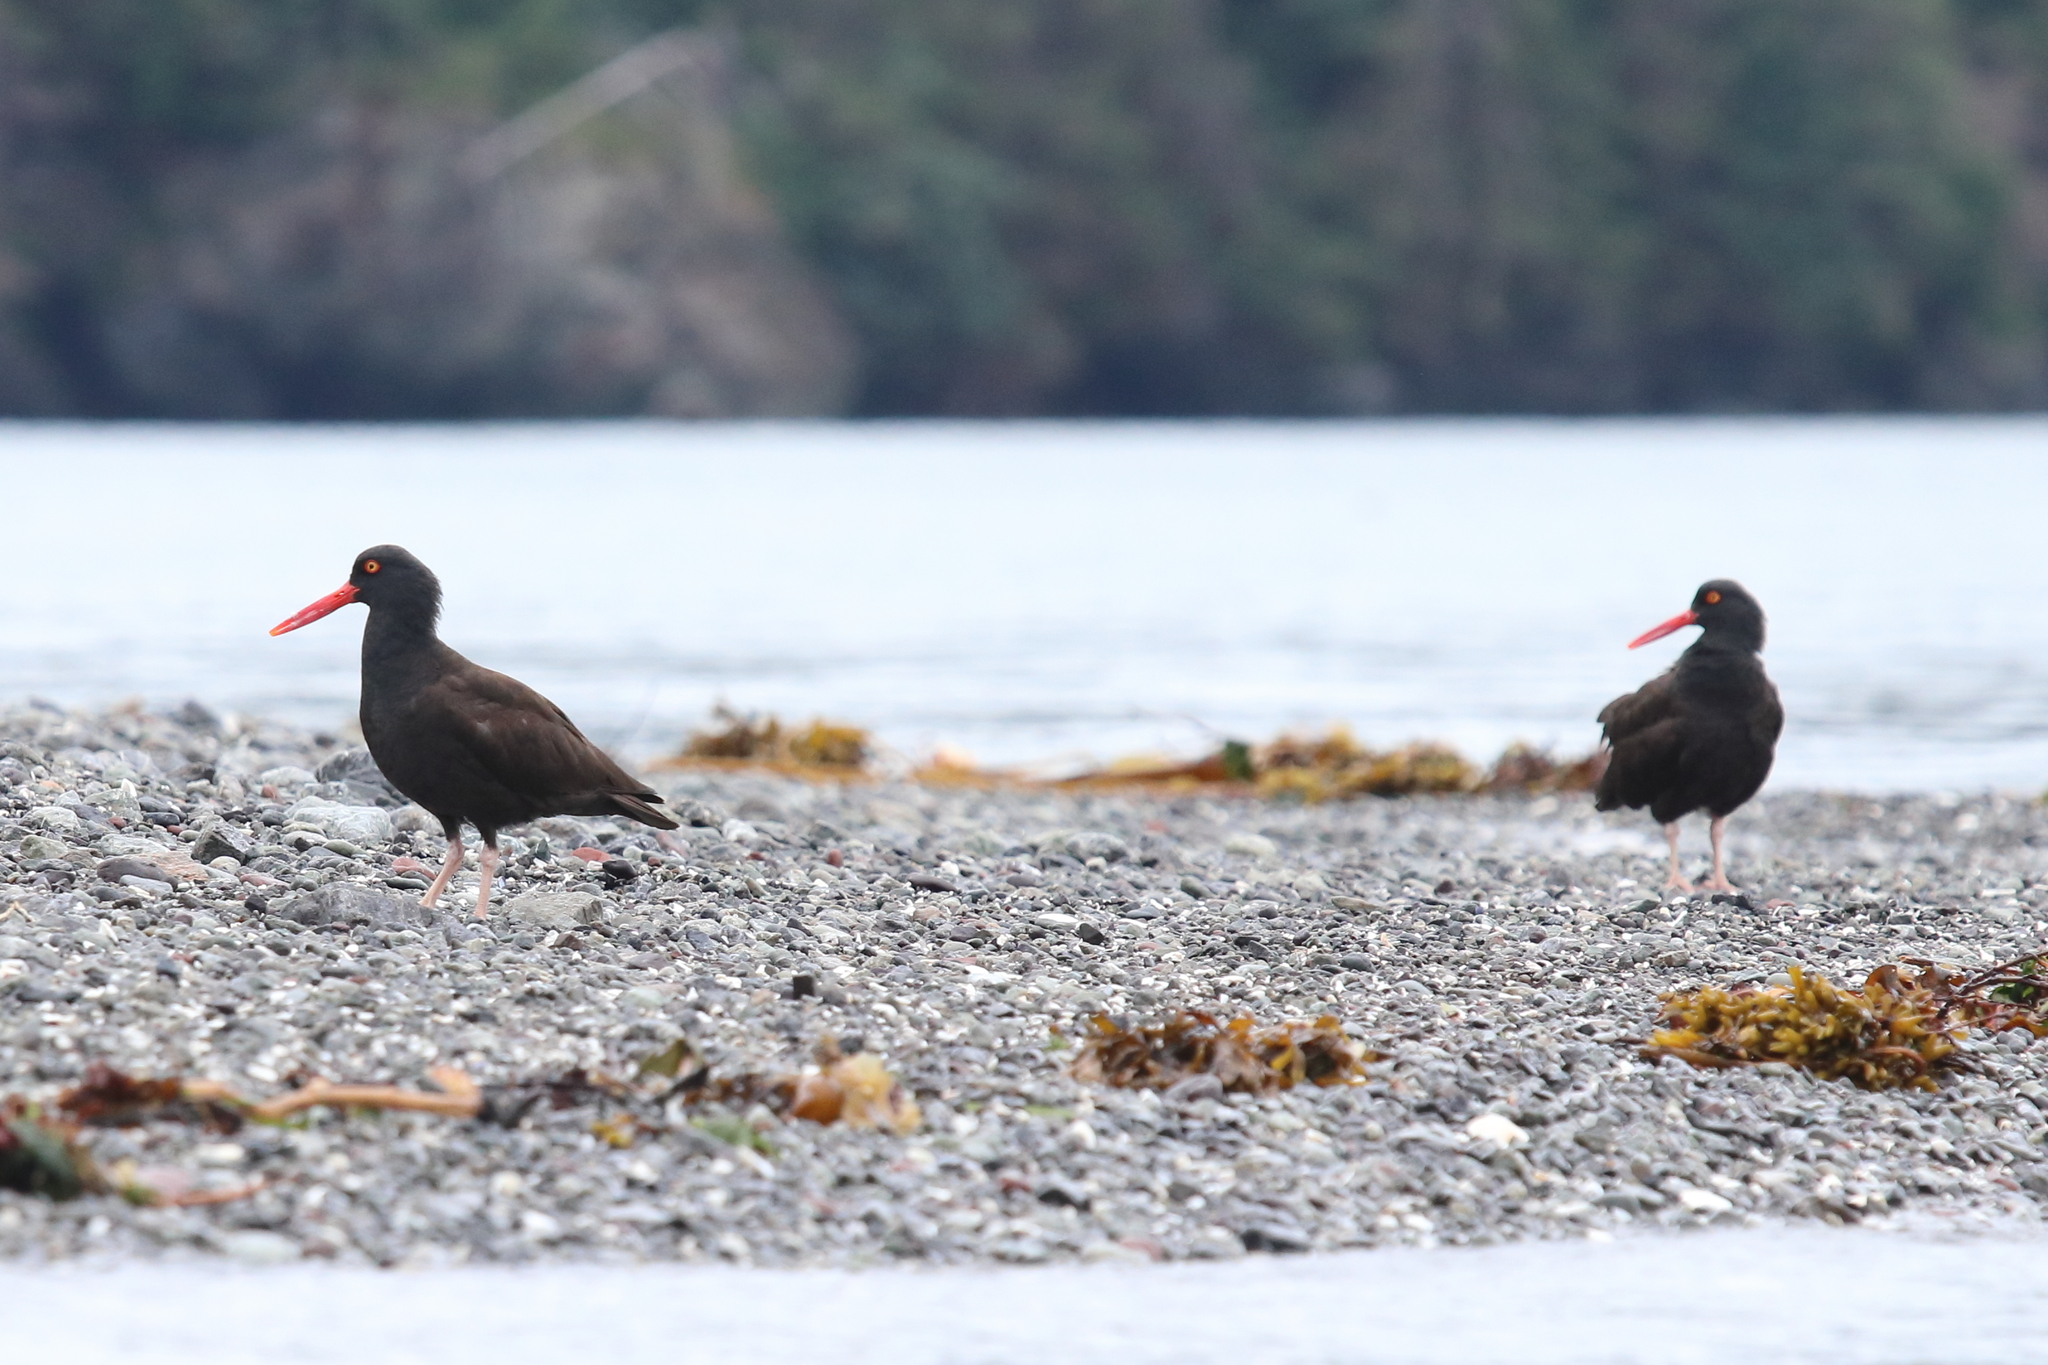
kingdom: Animalia
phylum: Chordata
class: Aves
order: Charadriiformes
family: Haematopodidae
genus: Haematopus
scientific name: Haematopus bachmani
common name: Black oystercatcher
